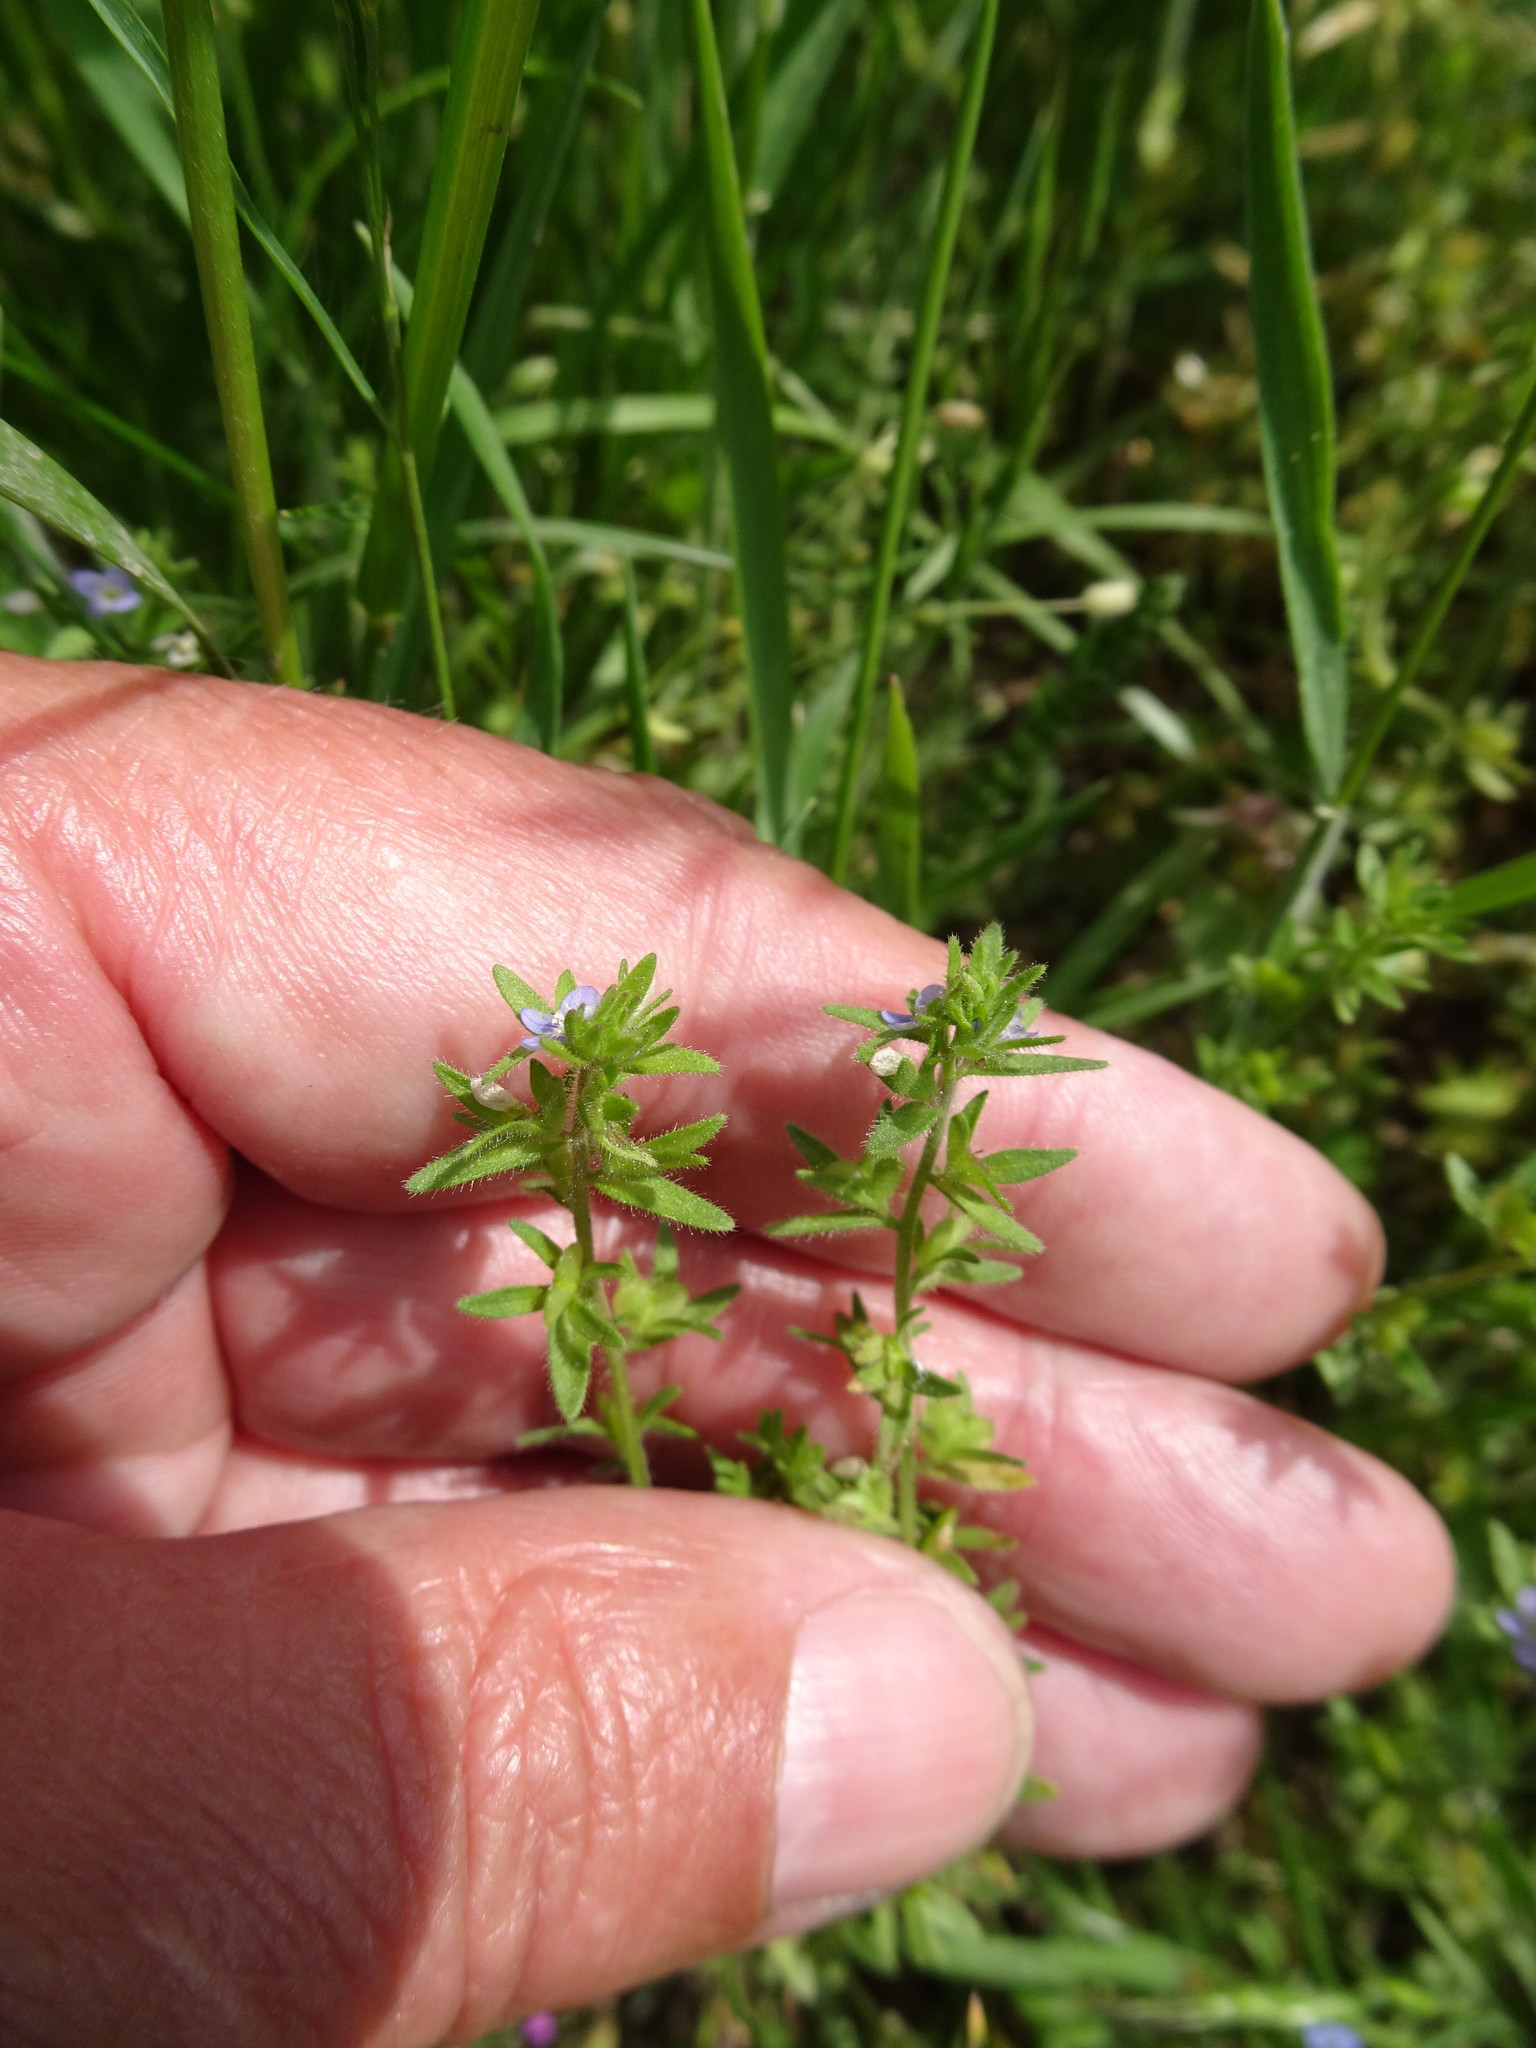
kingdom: Plantae
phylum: Tracheophyta
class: Magnoliopsida
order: Lamiales
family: Plantaginaceae
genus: Veronica
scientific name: Veronica arvensis
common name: Corn speedwell
